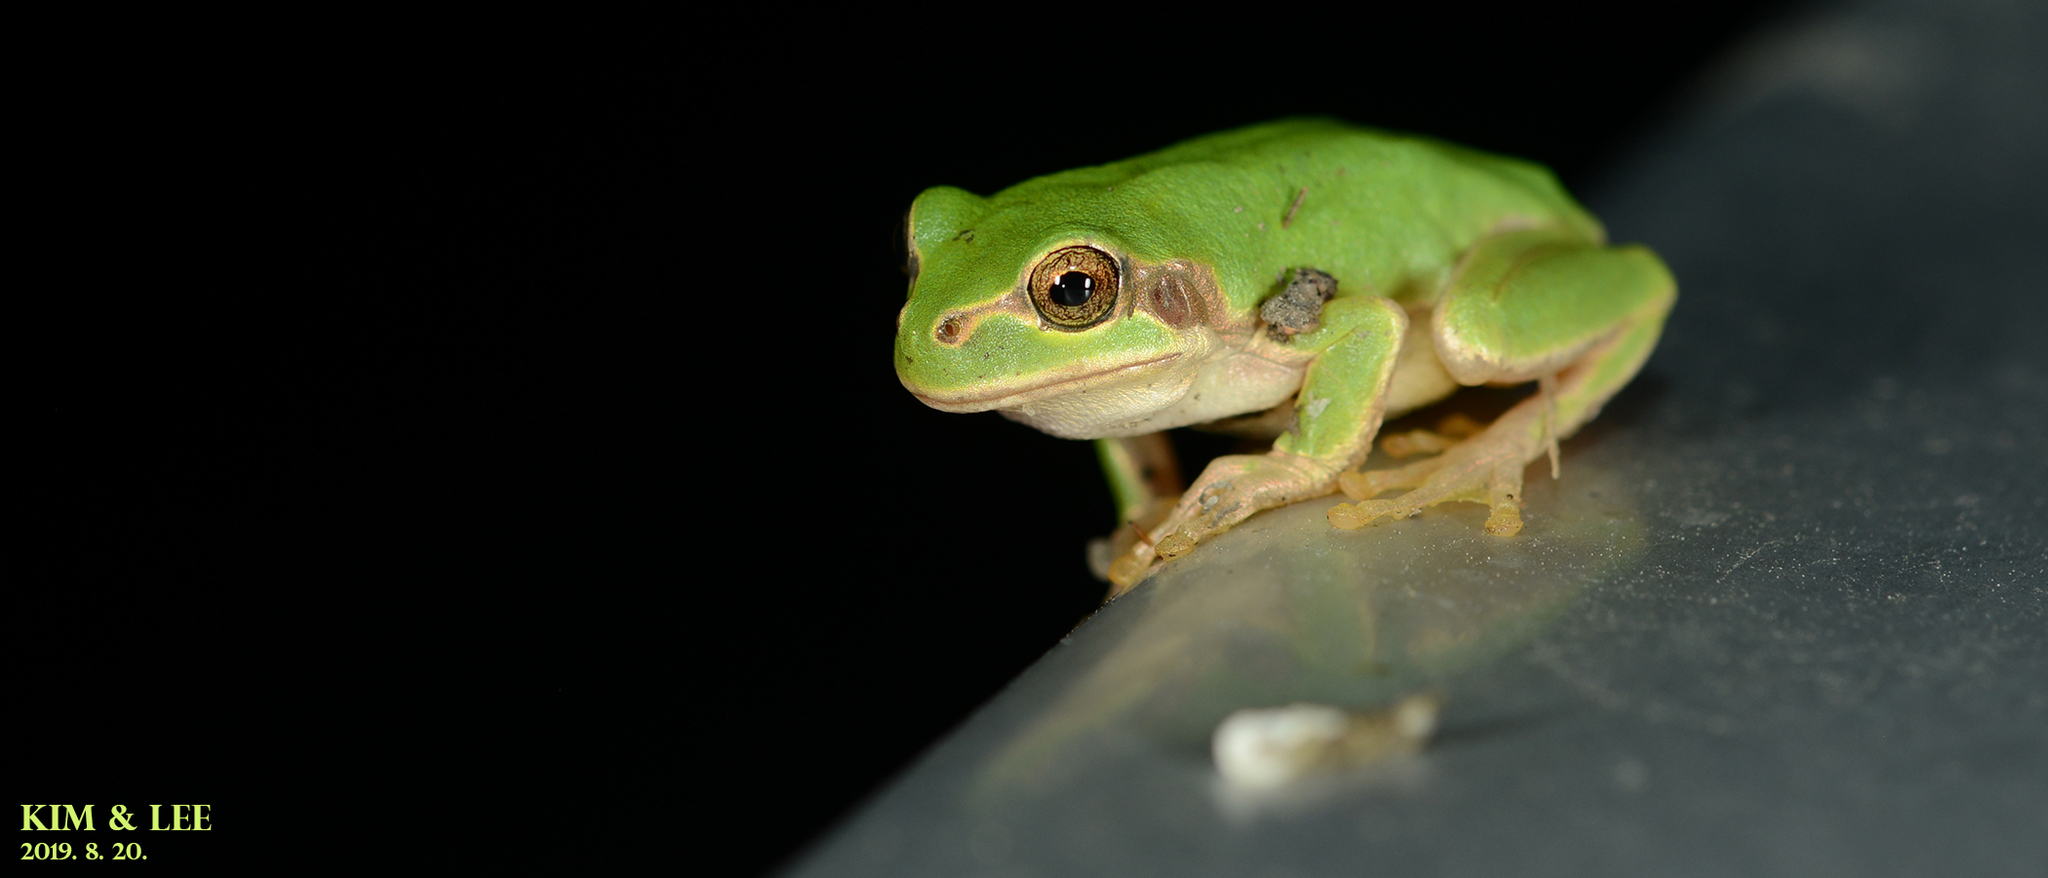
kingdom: Animalia
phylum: Chordata
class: Amphibia
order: Anura
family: Hylidae
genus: Dryophytes
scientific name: Dryophytes japonicus
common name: Japanese treefrog
